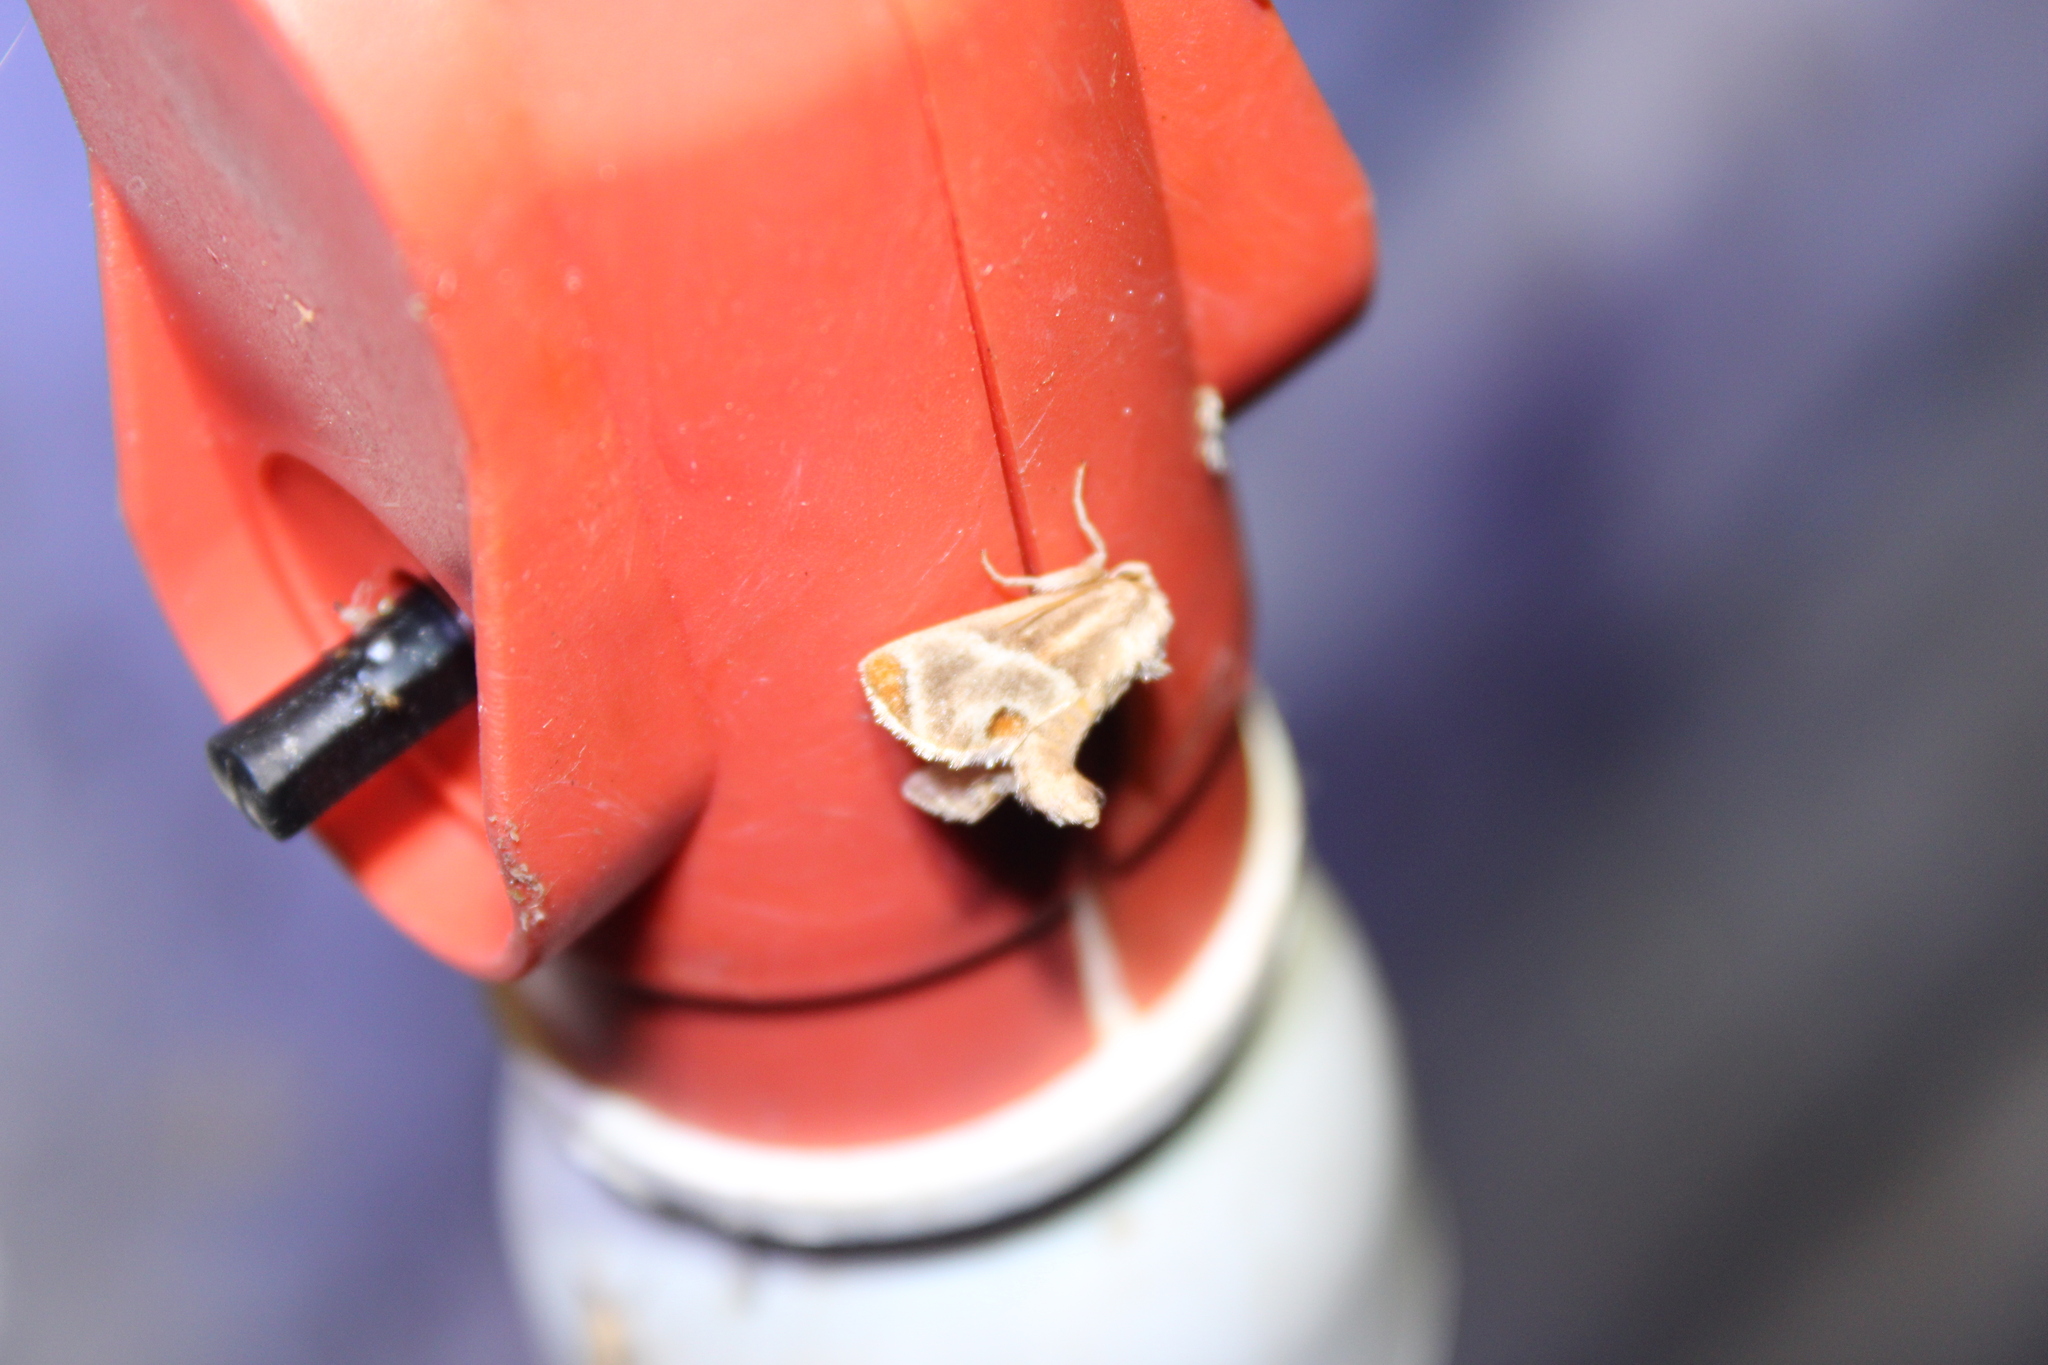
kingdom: Animalia
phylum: Arthropoda
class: Insecta
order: Lepidoptera
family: Limacodidae
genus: Apoda
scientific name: Apoda biguttata
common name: Shagreened slug moth
